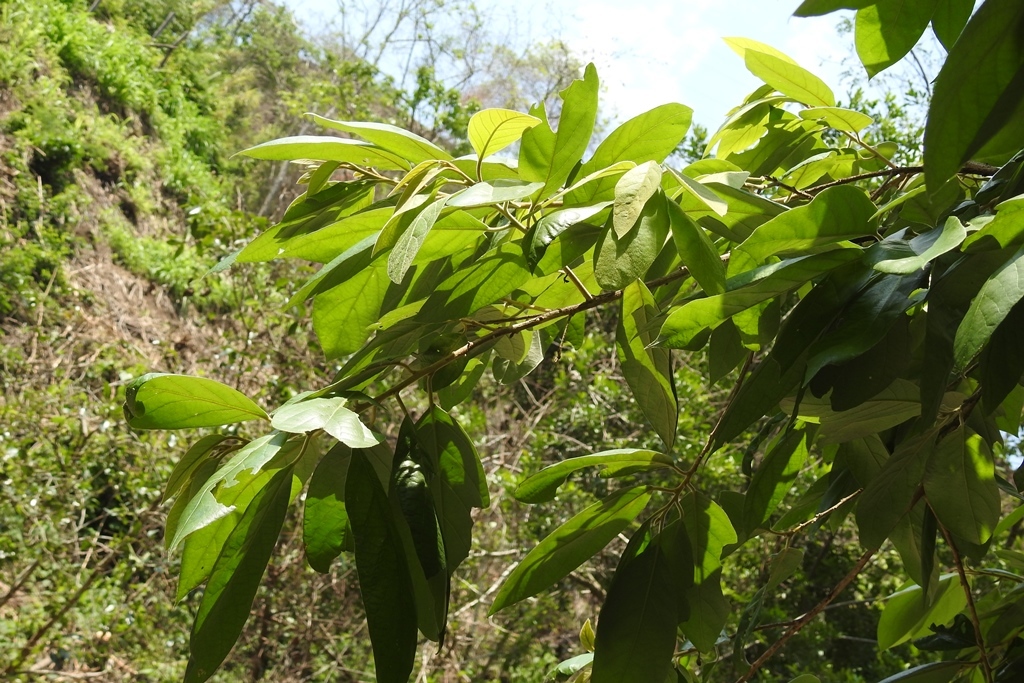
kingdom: Plantae
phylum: Tracheophyta
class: Magnoliopsida
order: Ericales
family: Styracaceae
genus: Styrax
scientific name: Styrax argenteus
